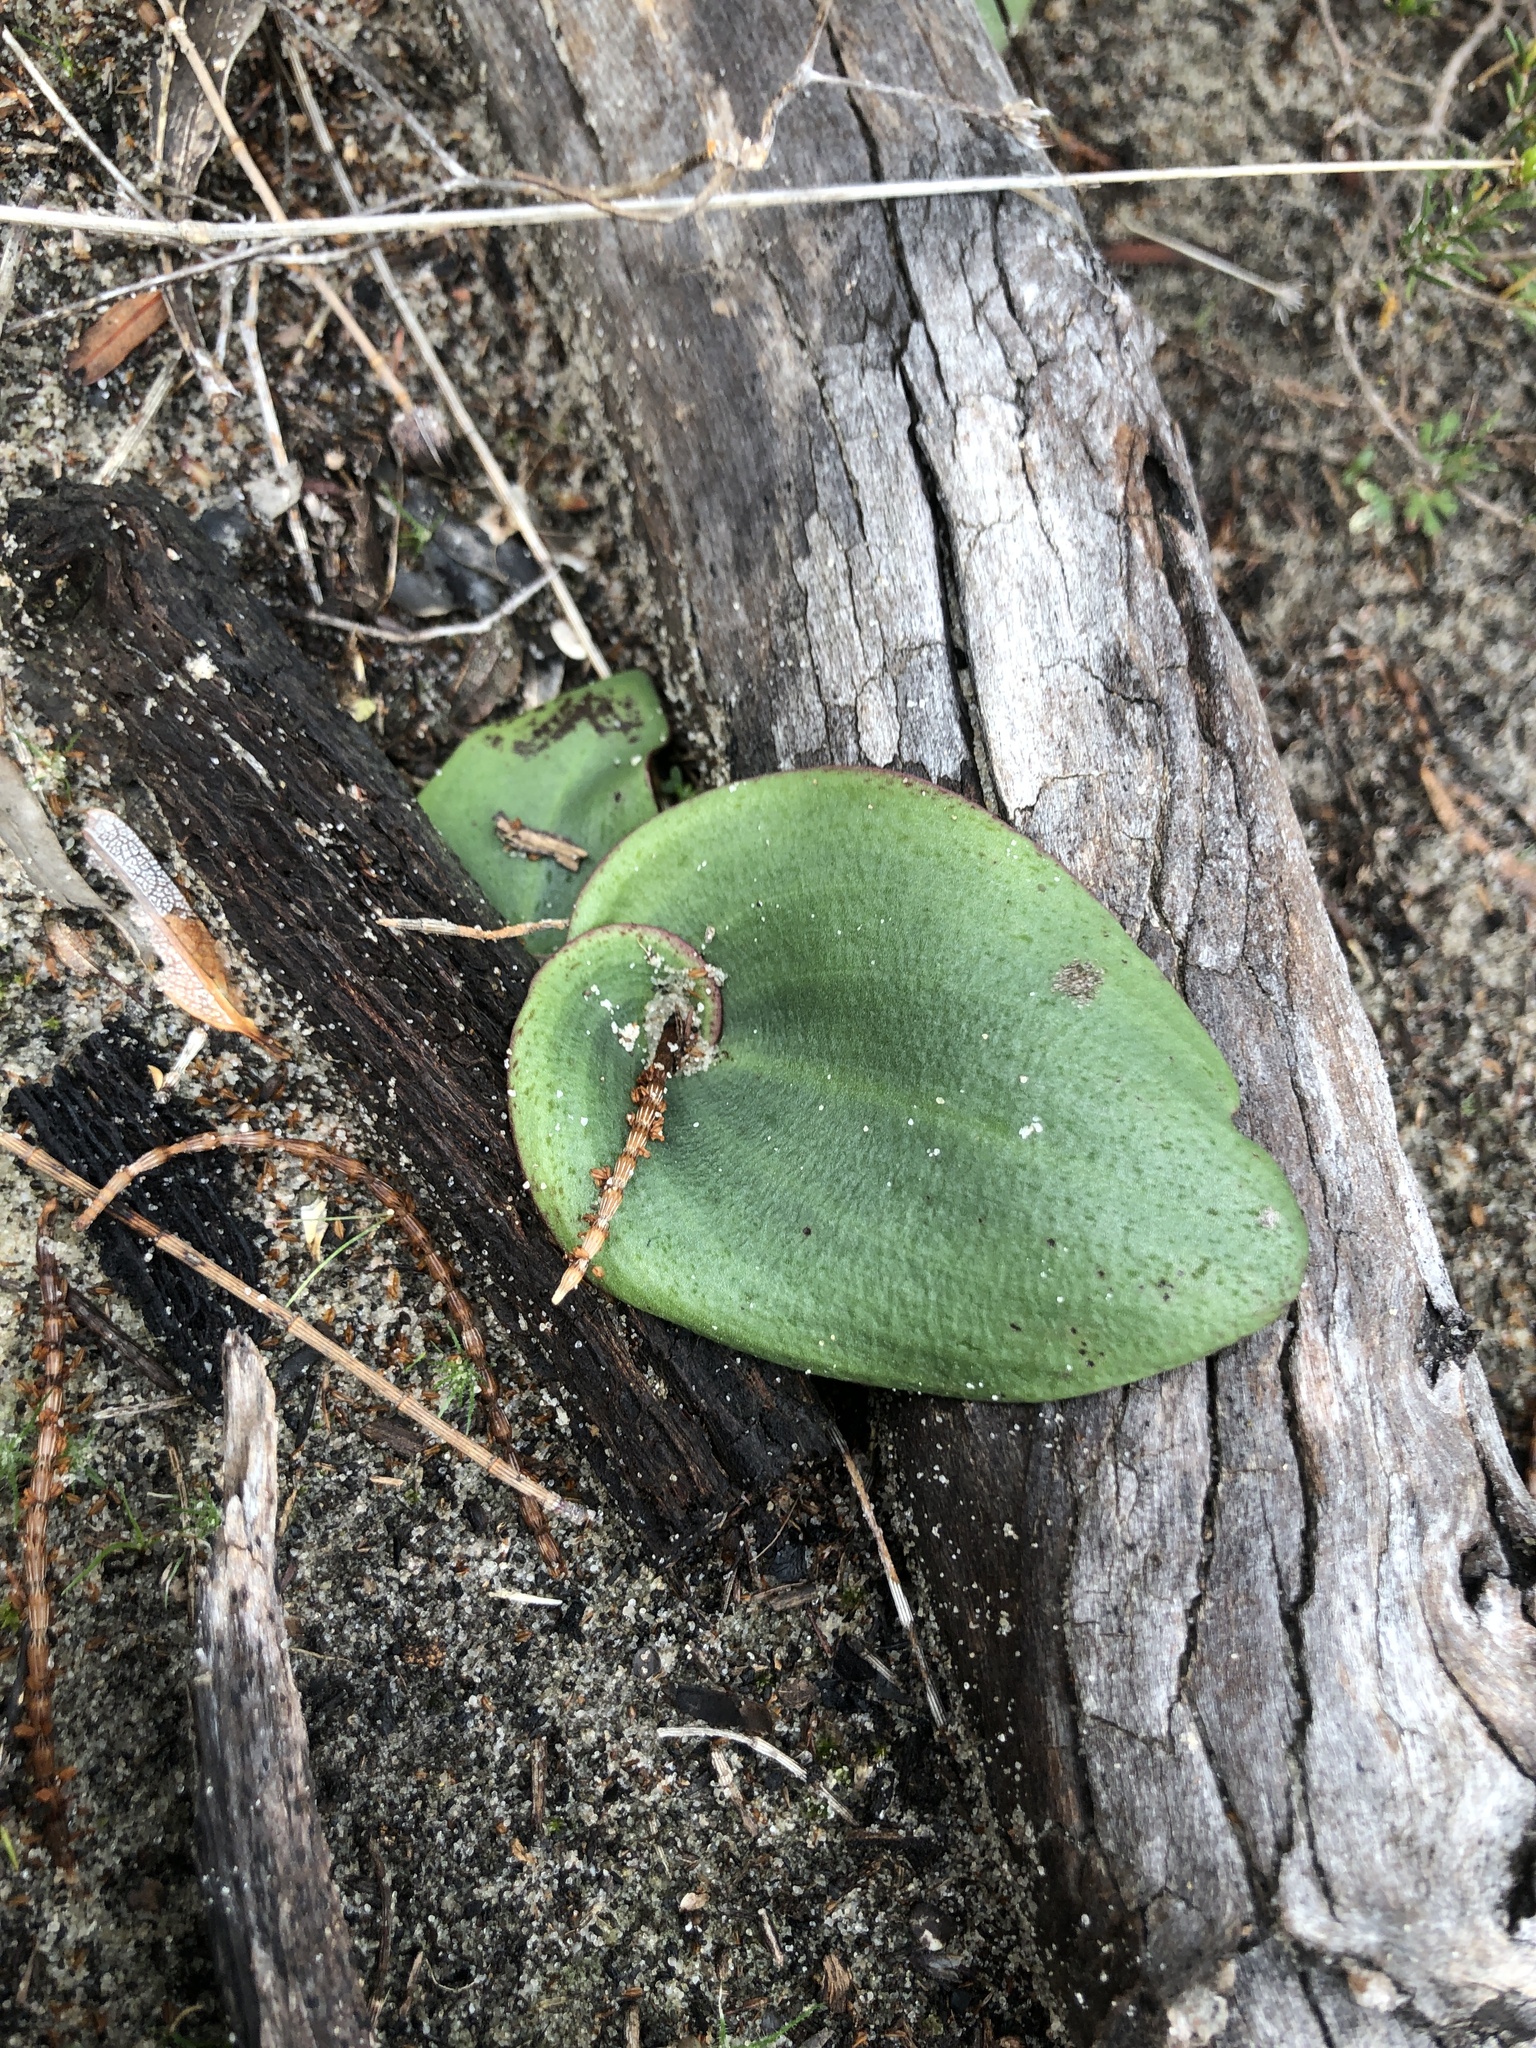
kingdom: Plantae
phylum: Tracheophyta
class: Liliopsida
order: Asparagales
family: Orchidaceae
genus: Pyrorchis
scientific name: Pyrorchis nigricans
